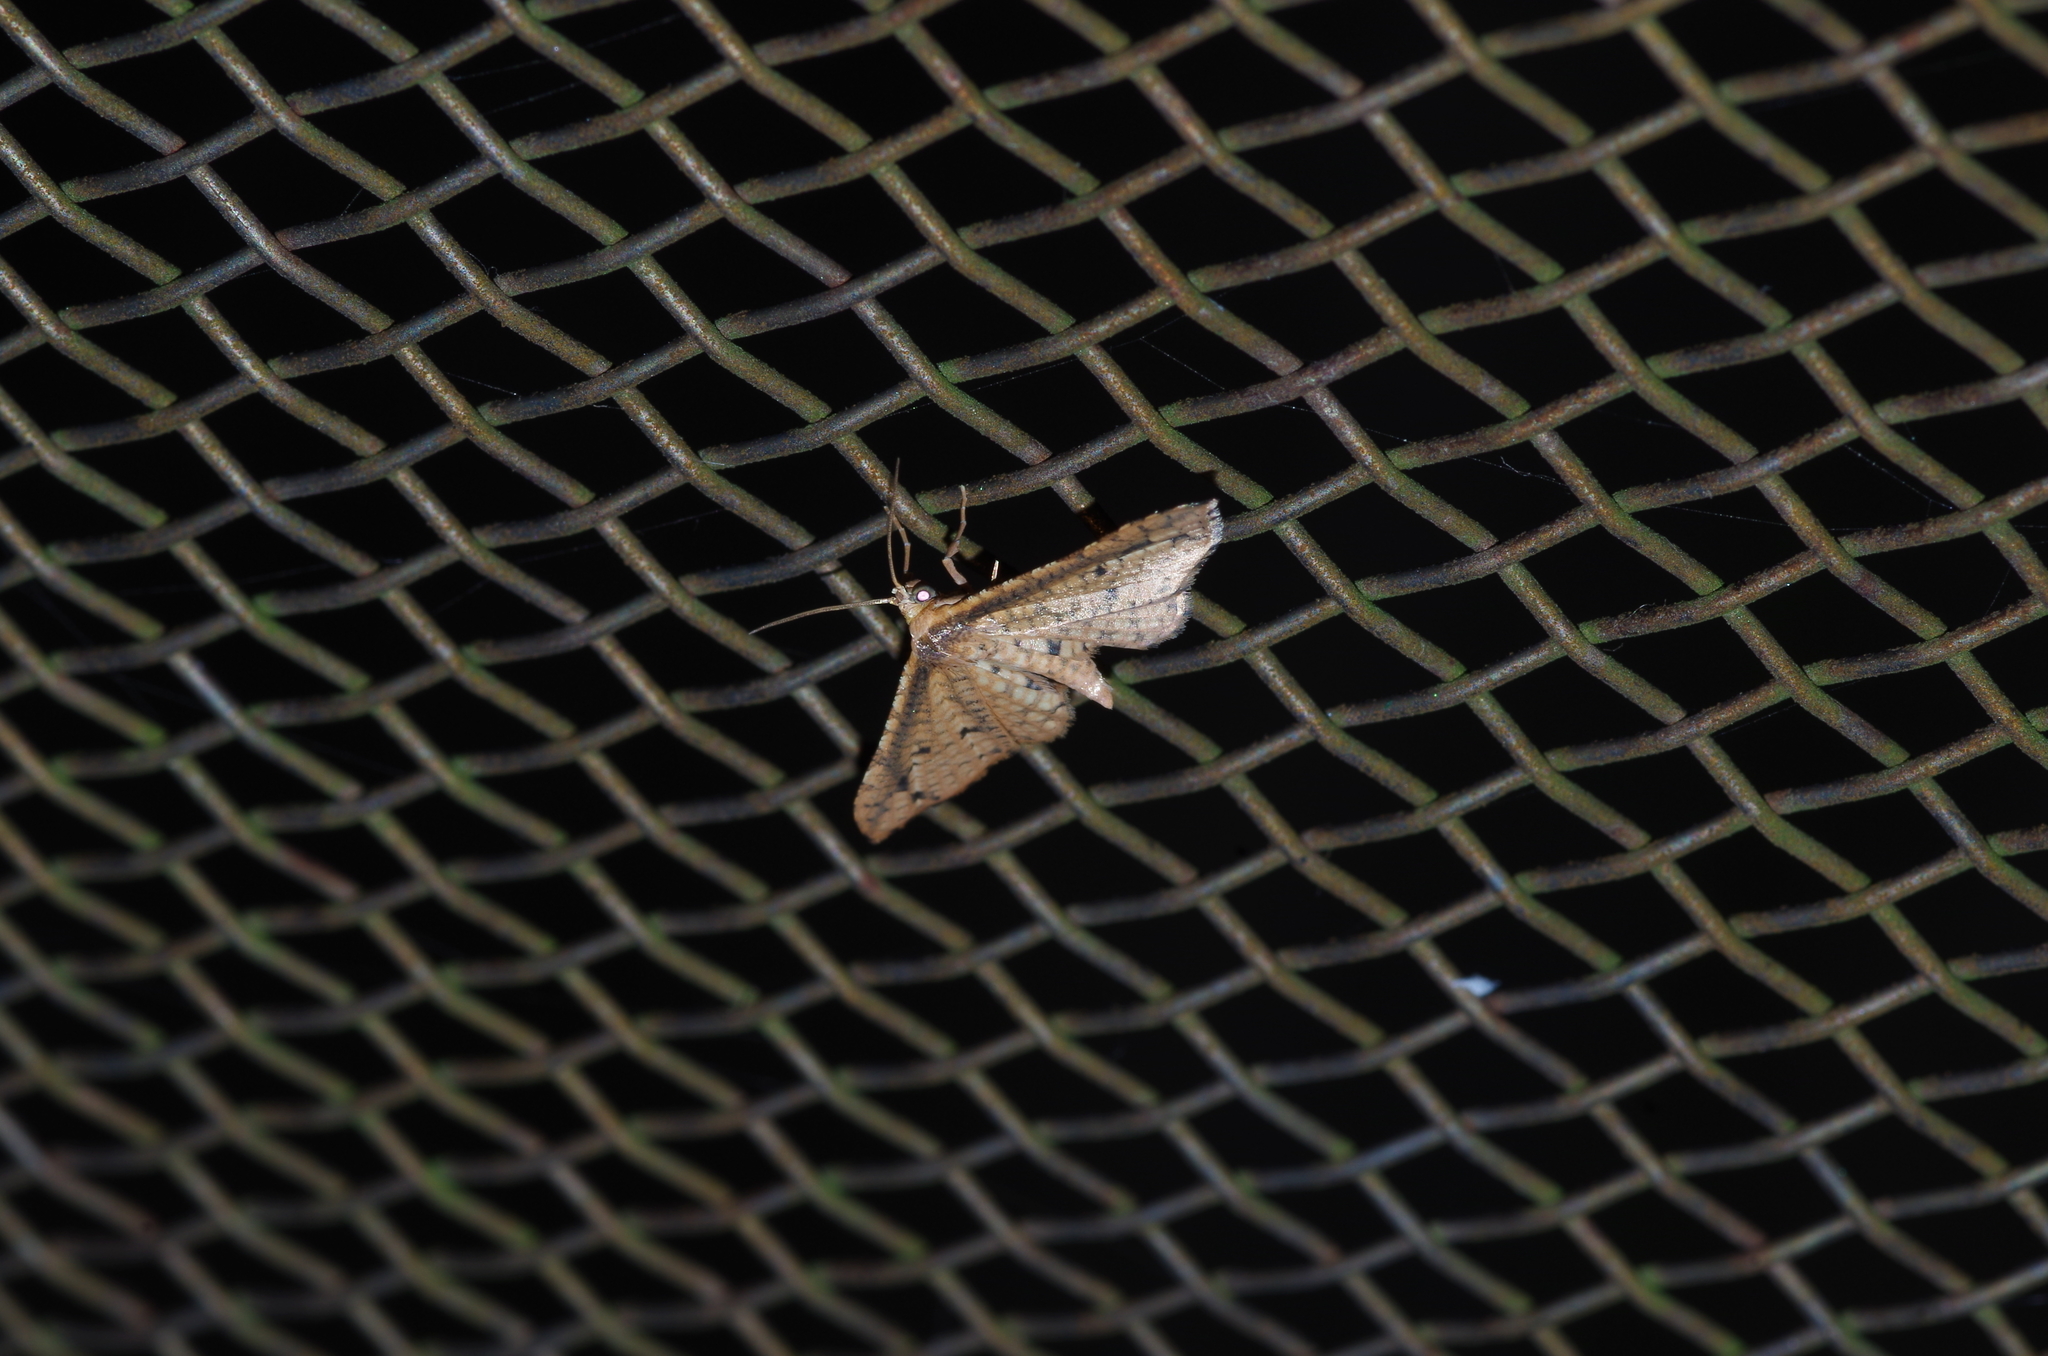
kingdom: Animalia
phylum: Arthropoda
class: Insecta
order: Lepidoptera
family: Thyrididae
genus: Pharambara
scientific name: Pharambara splendida
